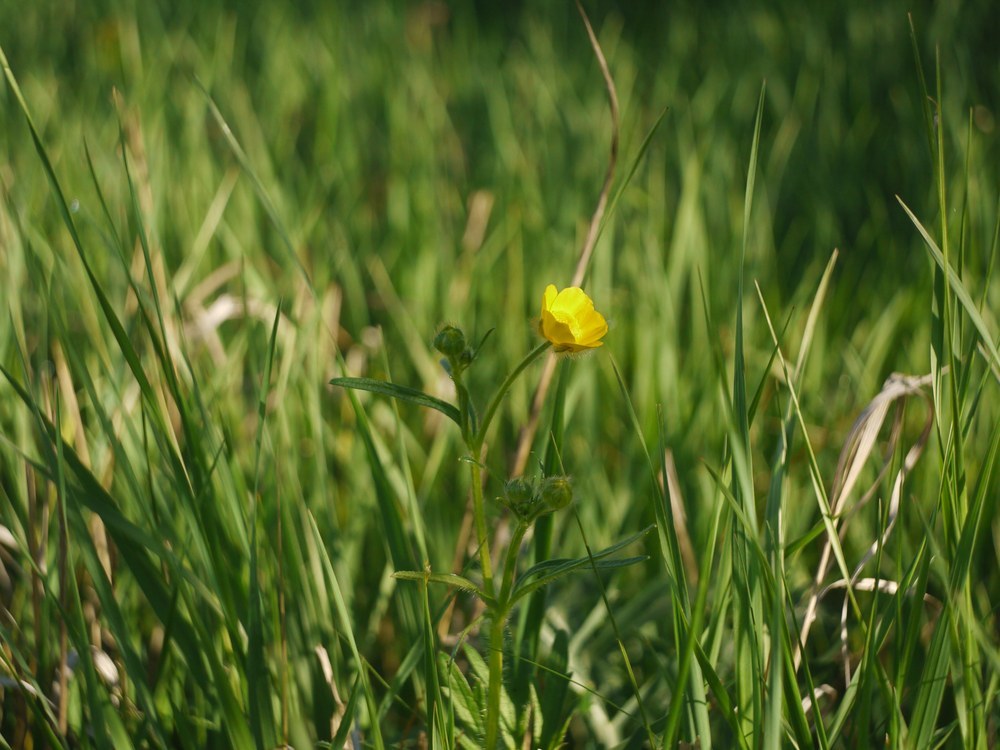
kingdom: Plantae
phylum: Tracheophyta
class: Magnoliopsida
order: Ranunculales
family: Ranunculaceae
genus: Ranunculus
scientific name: Ranunculus polyanthemos
